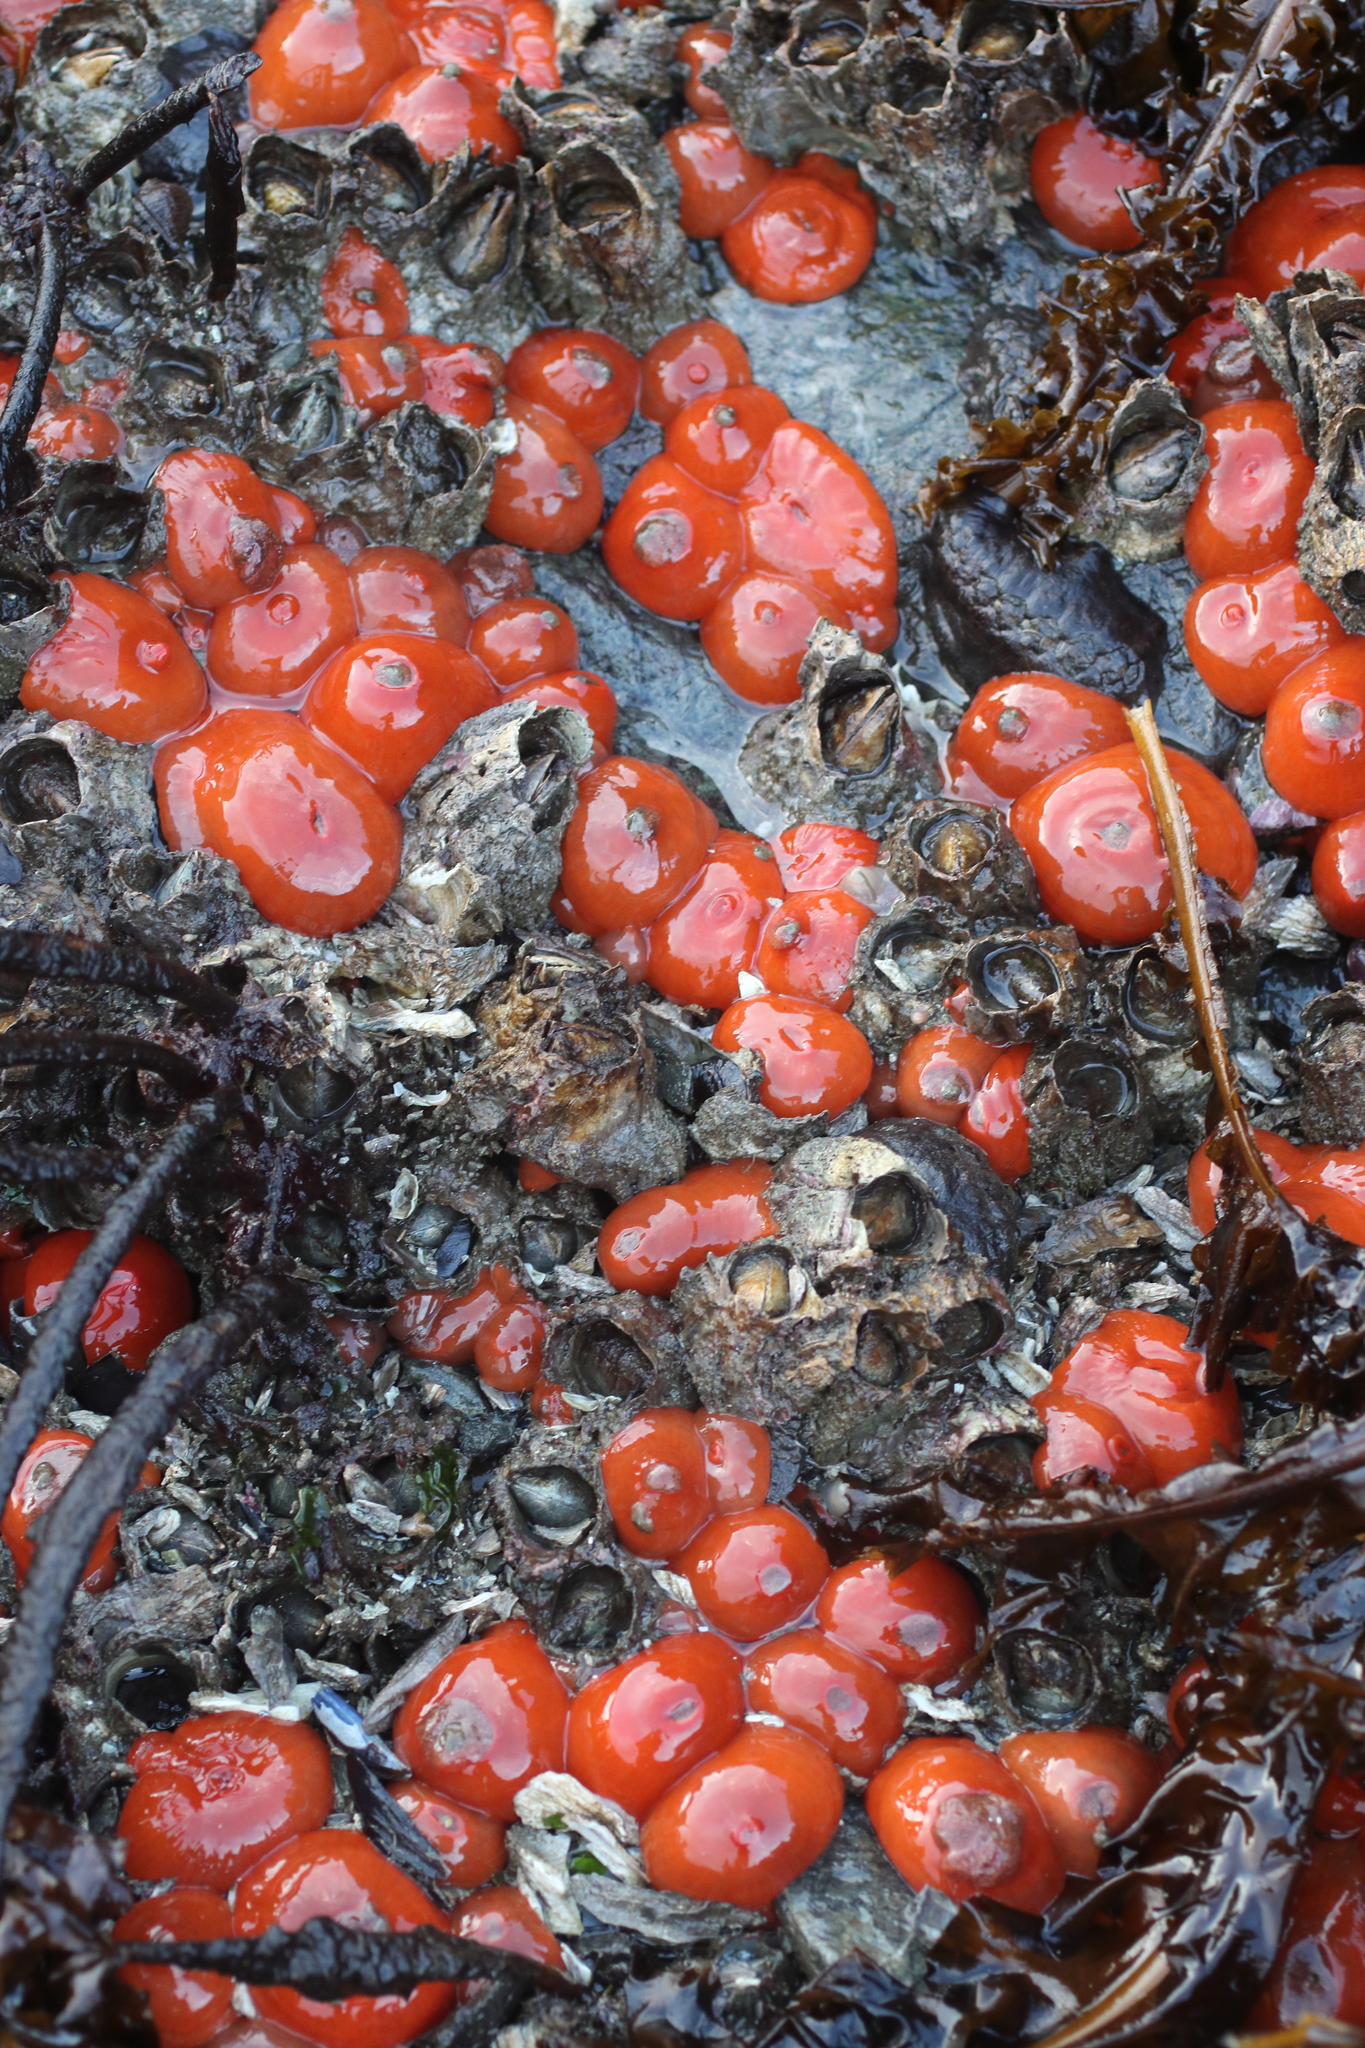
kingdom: Animalia
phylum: Cnidaria
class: Anthozoa
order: Actiniaria
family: Metridiidae
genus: Metridium
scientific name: Metridium senile
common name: Clonal plumose anemone
